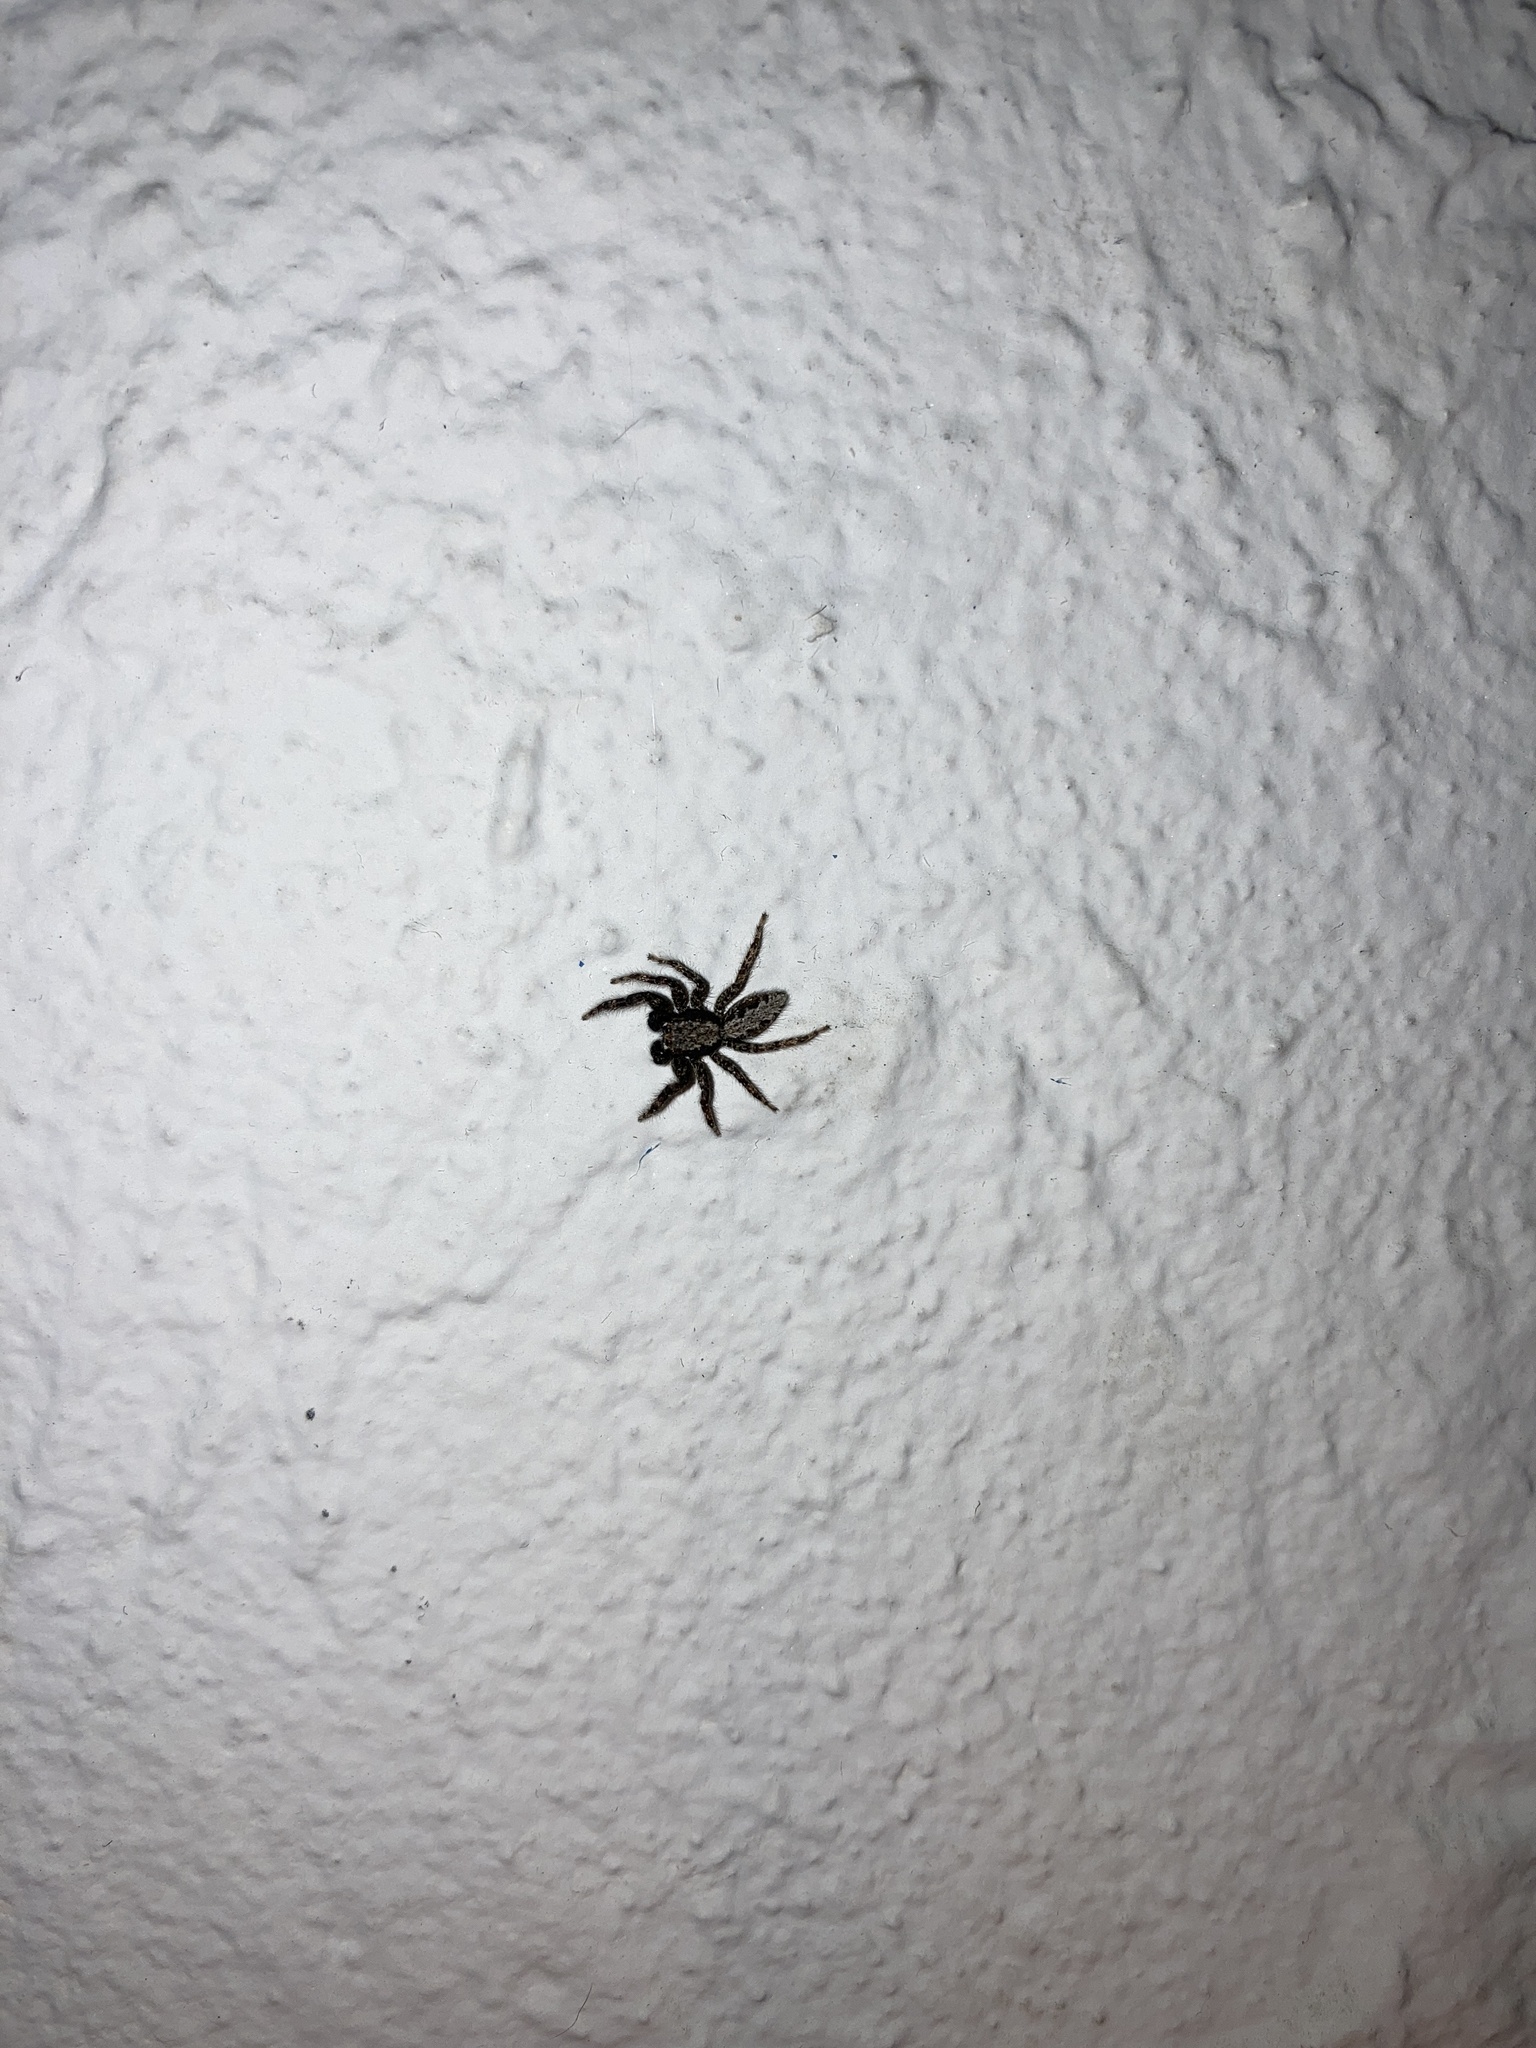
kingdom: Animalia
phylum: Arthropoda
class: Arachnida
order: Araneae
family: Salticidae
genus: Platycryptus
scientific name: Platycryptus californicus
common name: Jumping spiders
